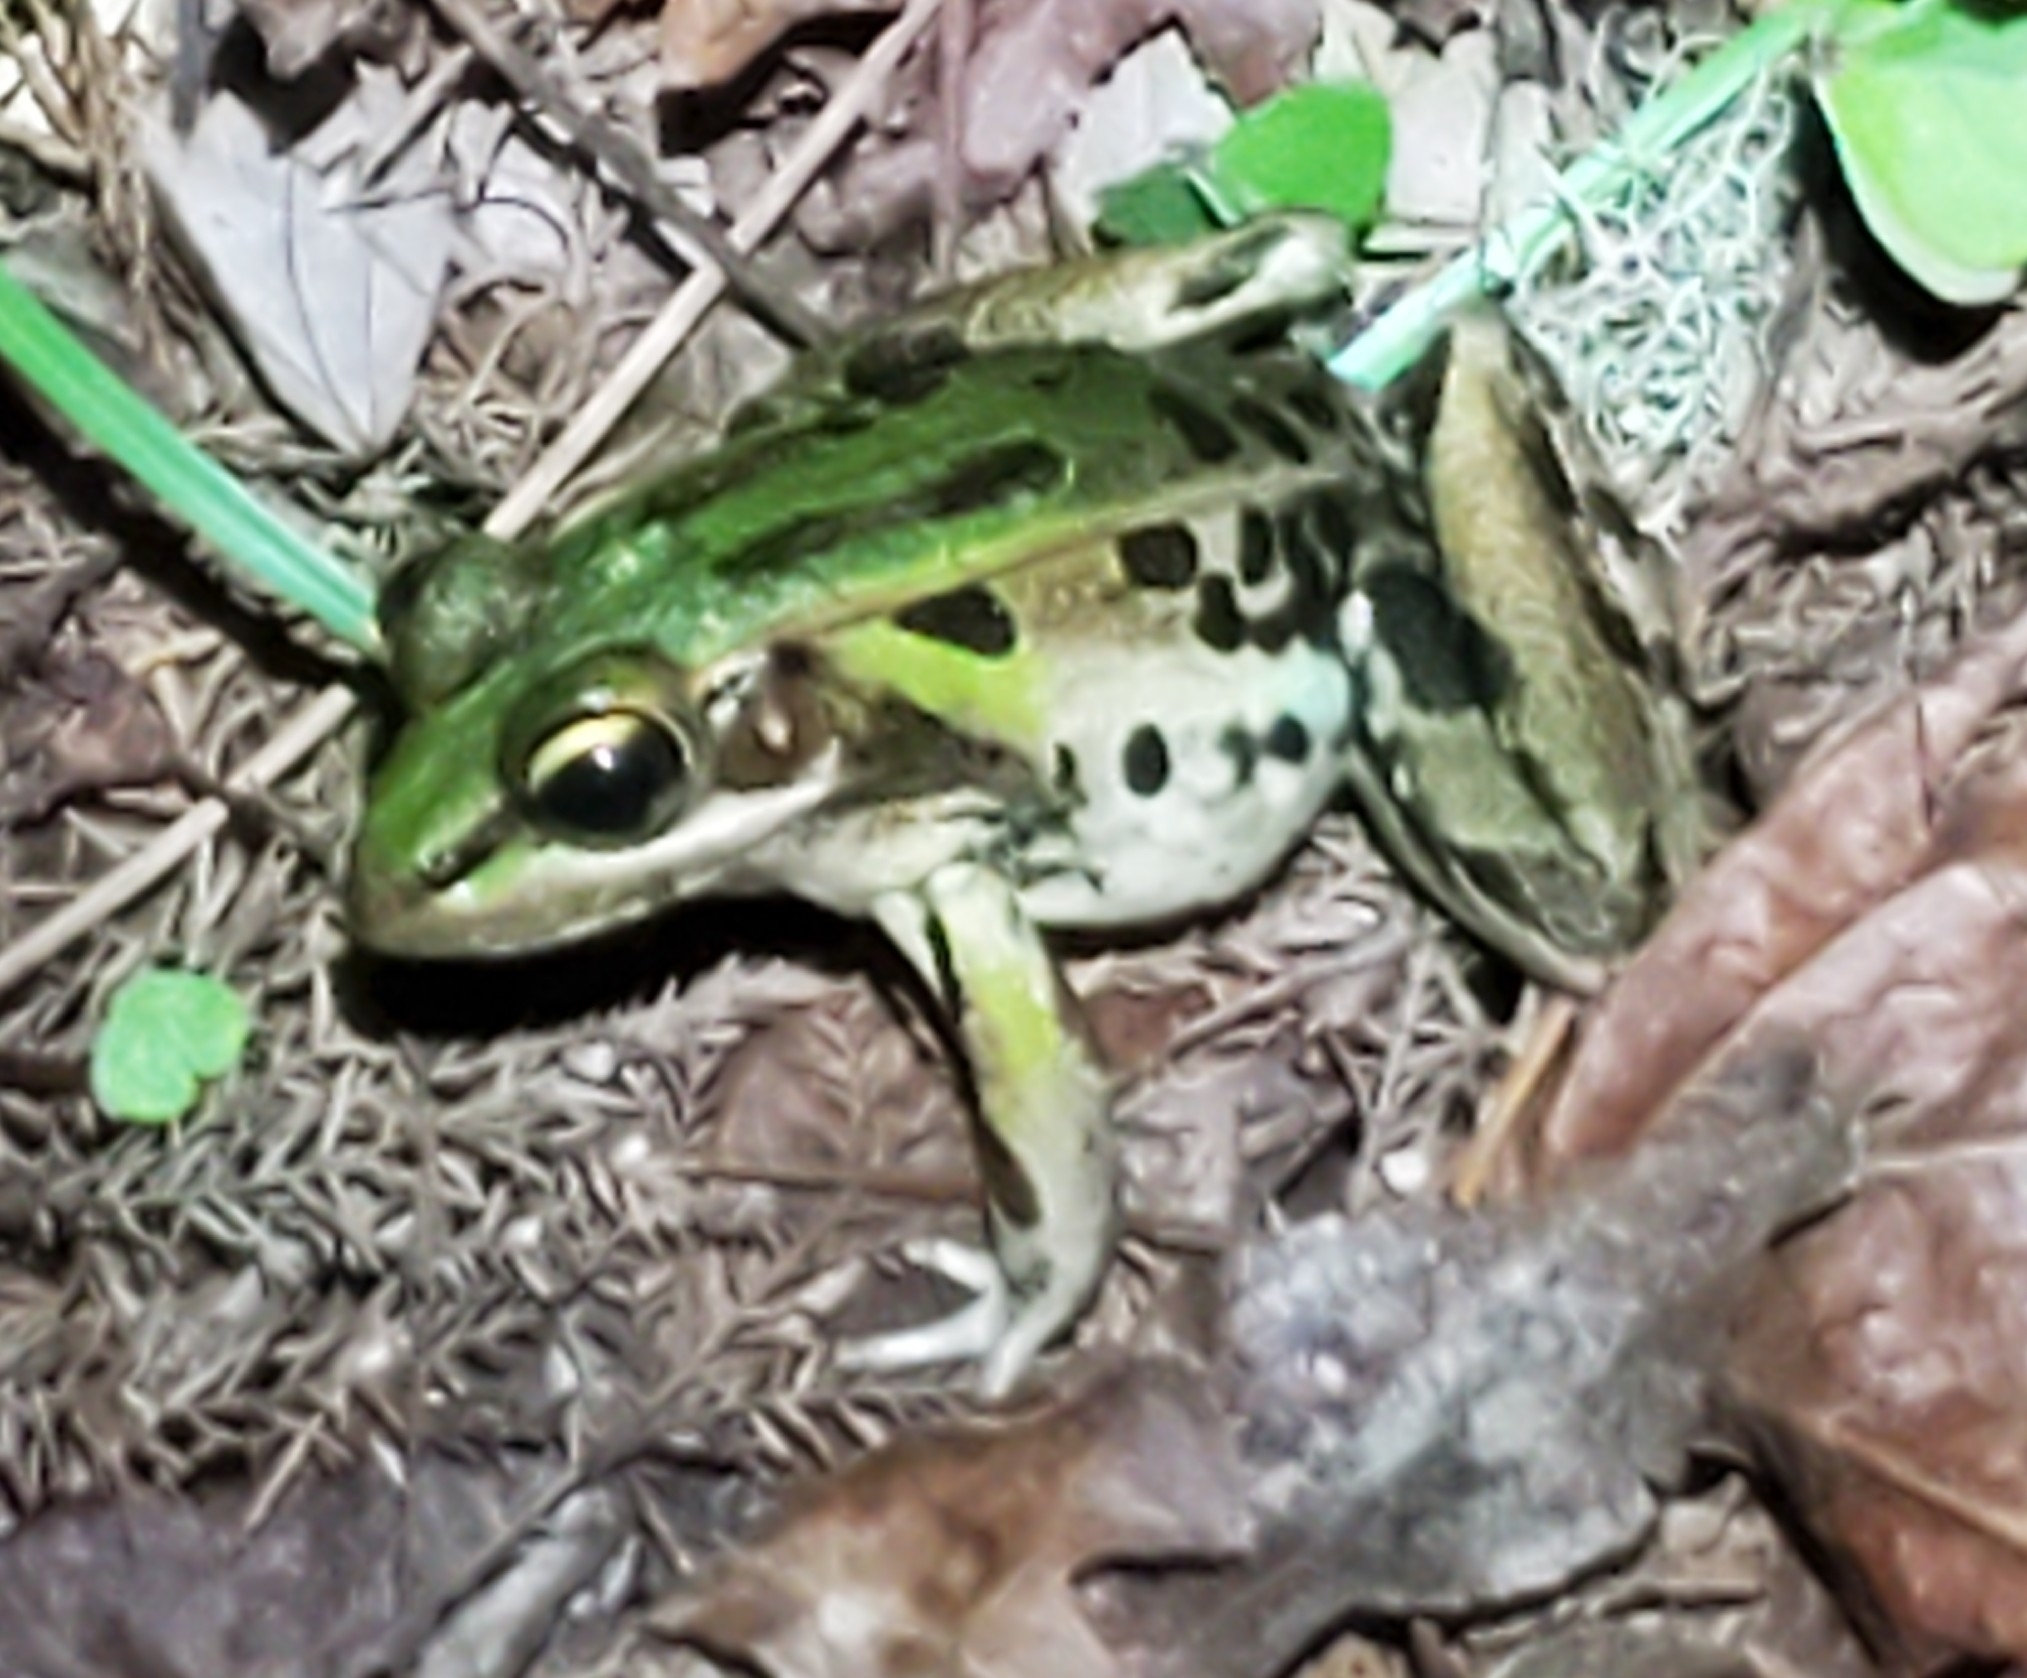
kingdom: Animalia
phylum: Chordata
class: Amphibia
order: Anura
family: Ranidae
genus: Lithobates
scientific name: Lithobates sphenocephalus
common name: Southern leopard frog
